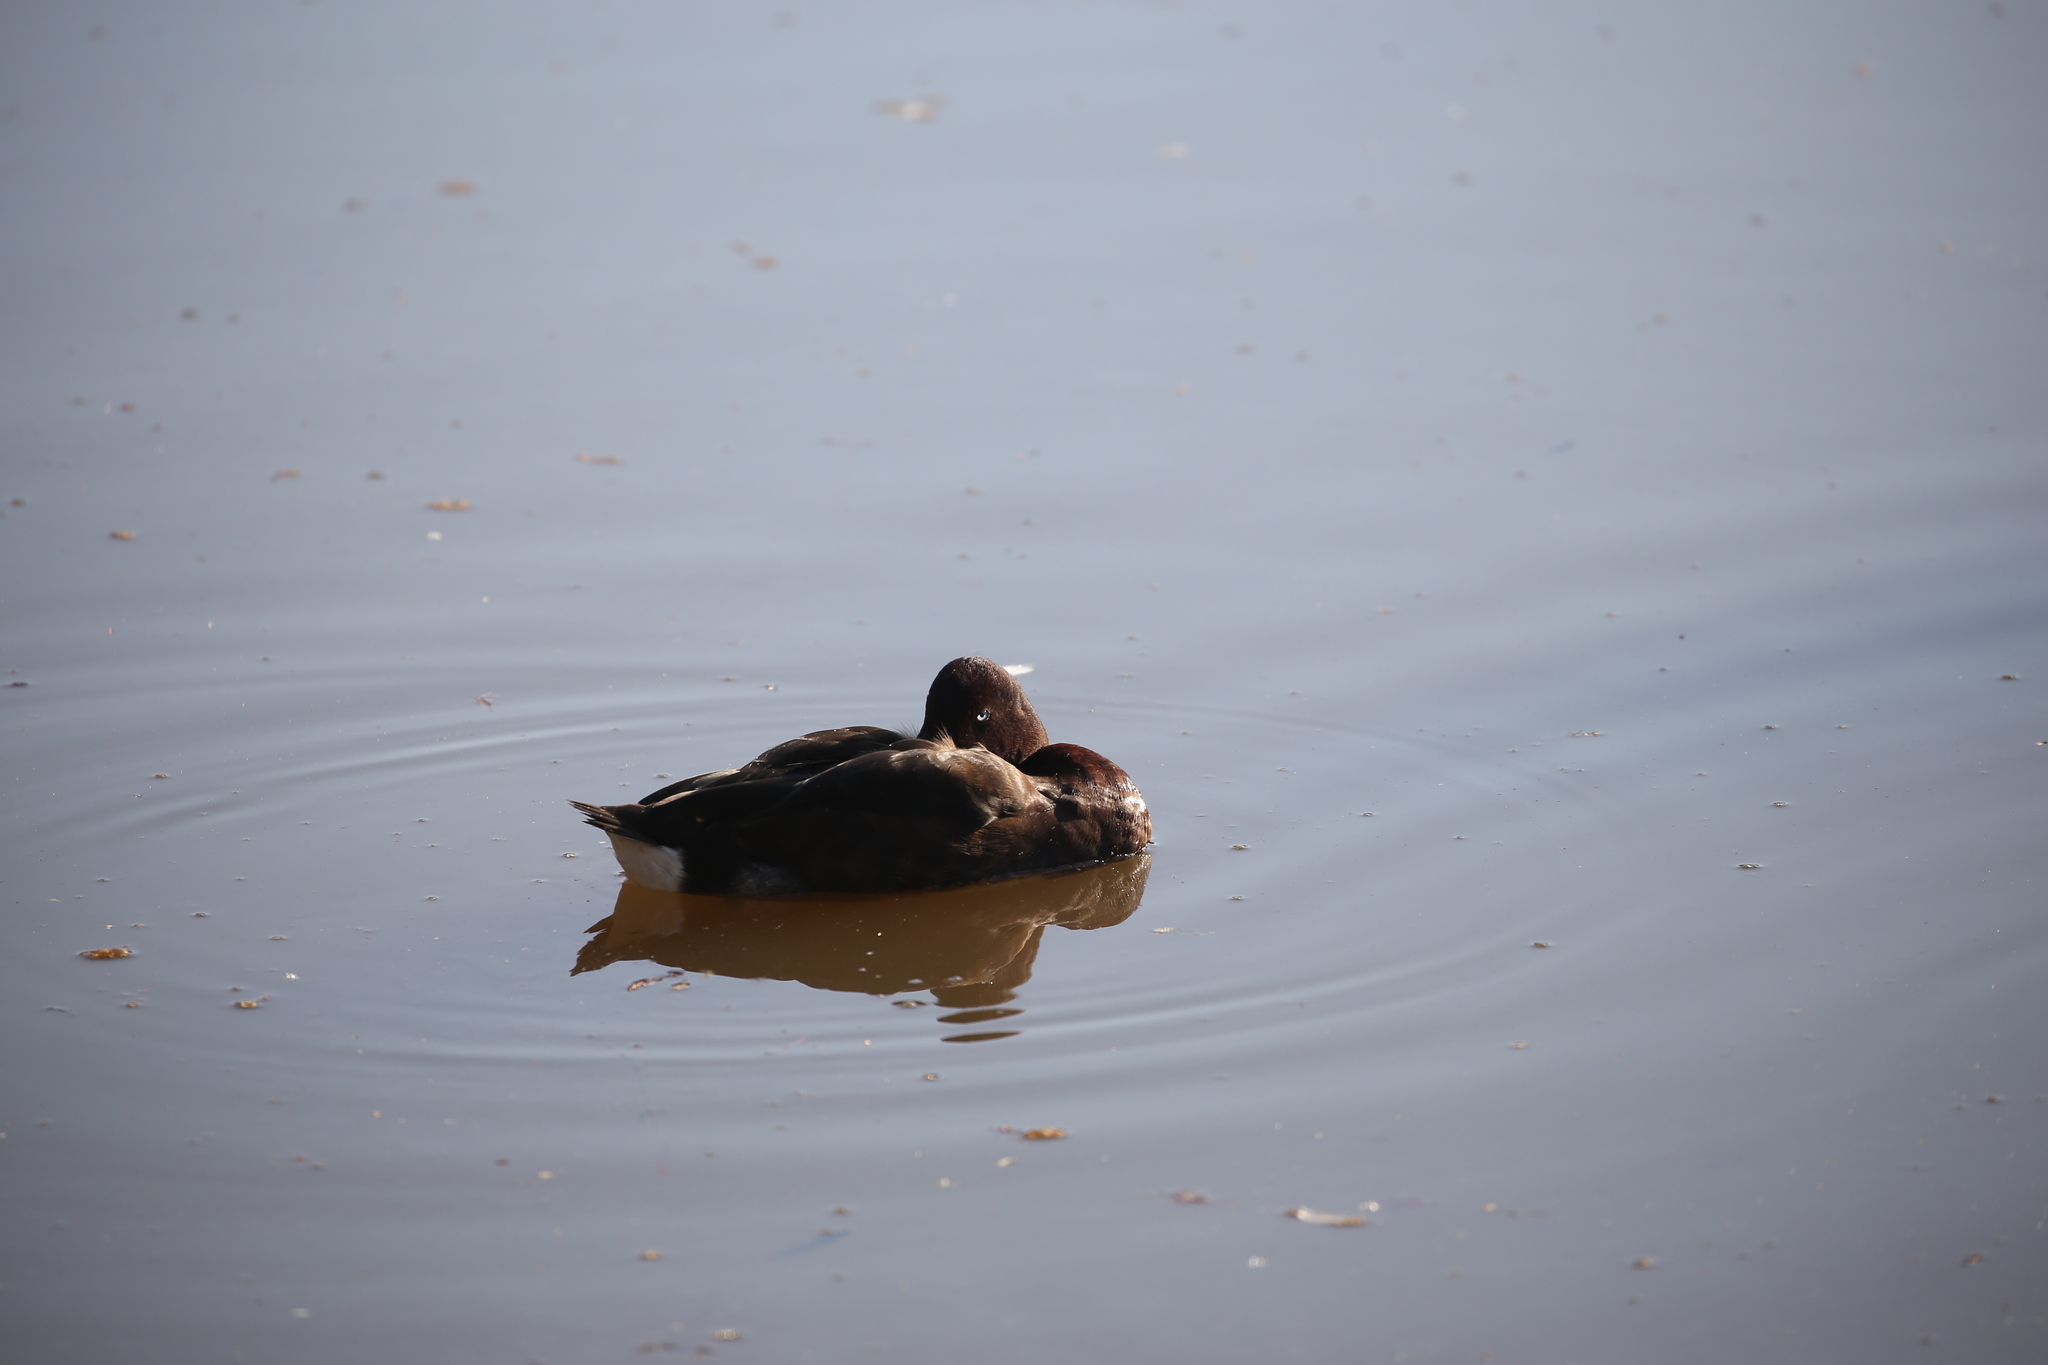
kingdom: Animalia
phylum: Chordata
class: Aves
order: Anseriformes
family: Anatidae
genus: Aythya
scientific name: Aythya australis
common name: Hardhead
